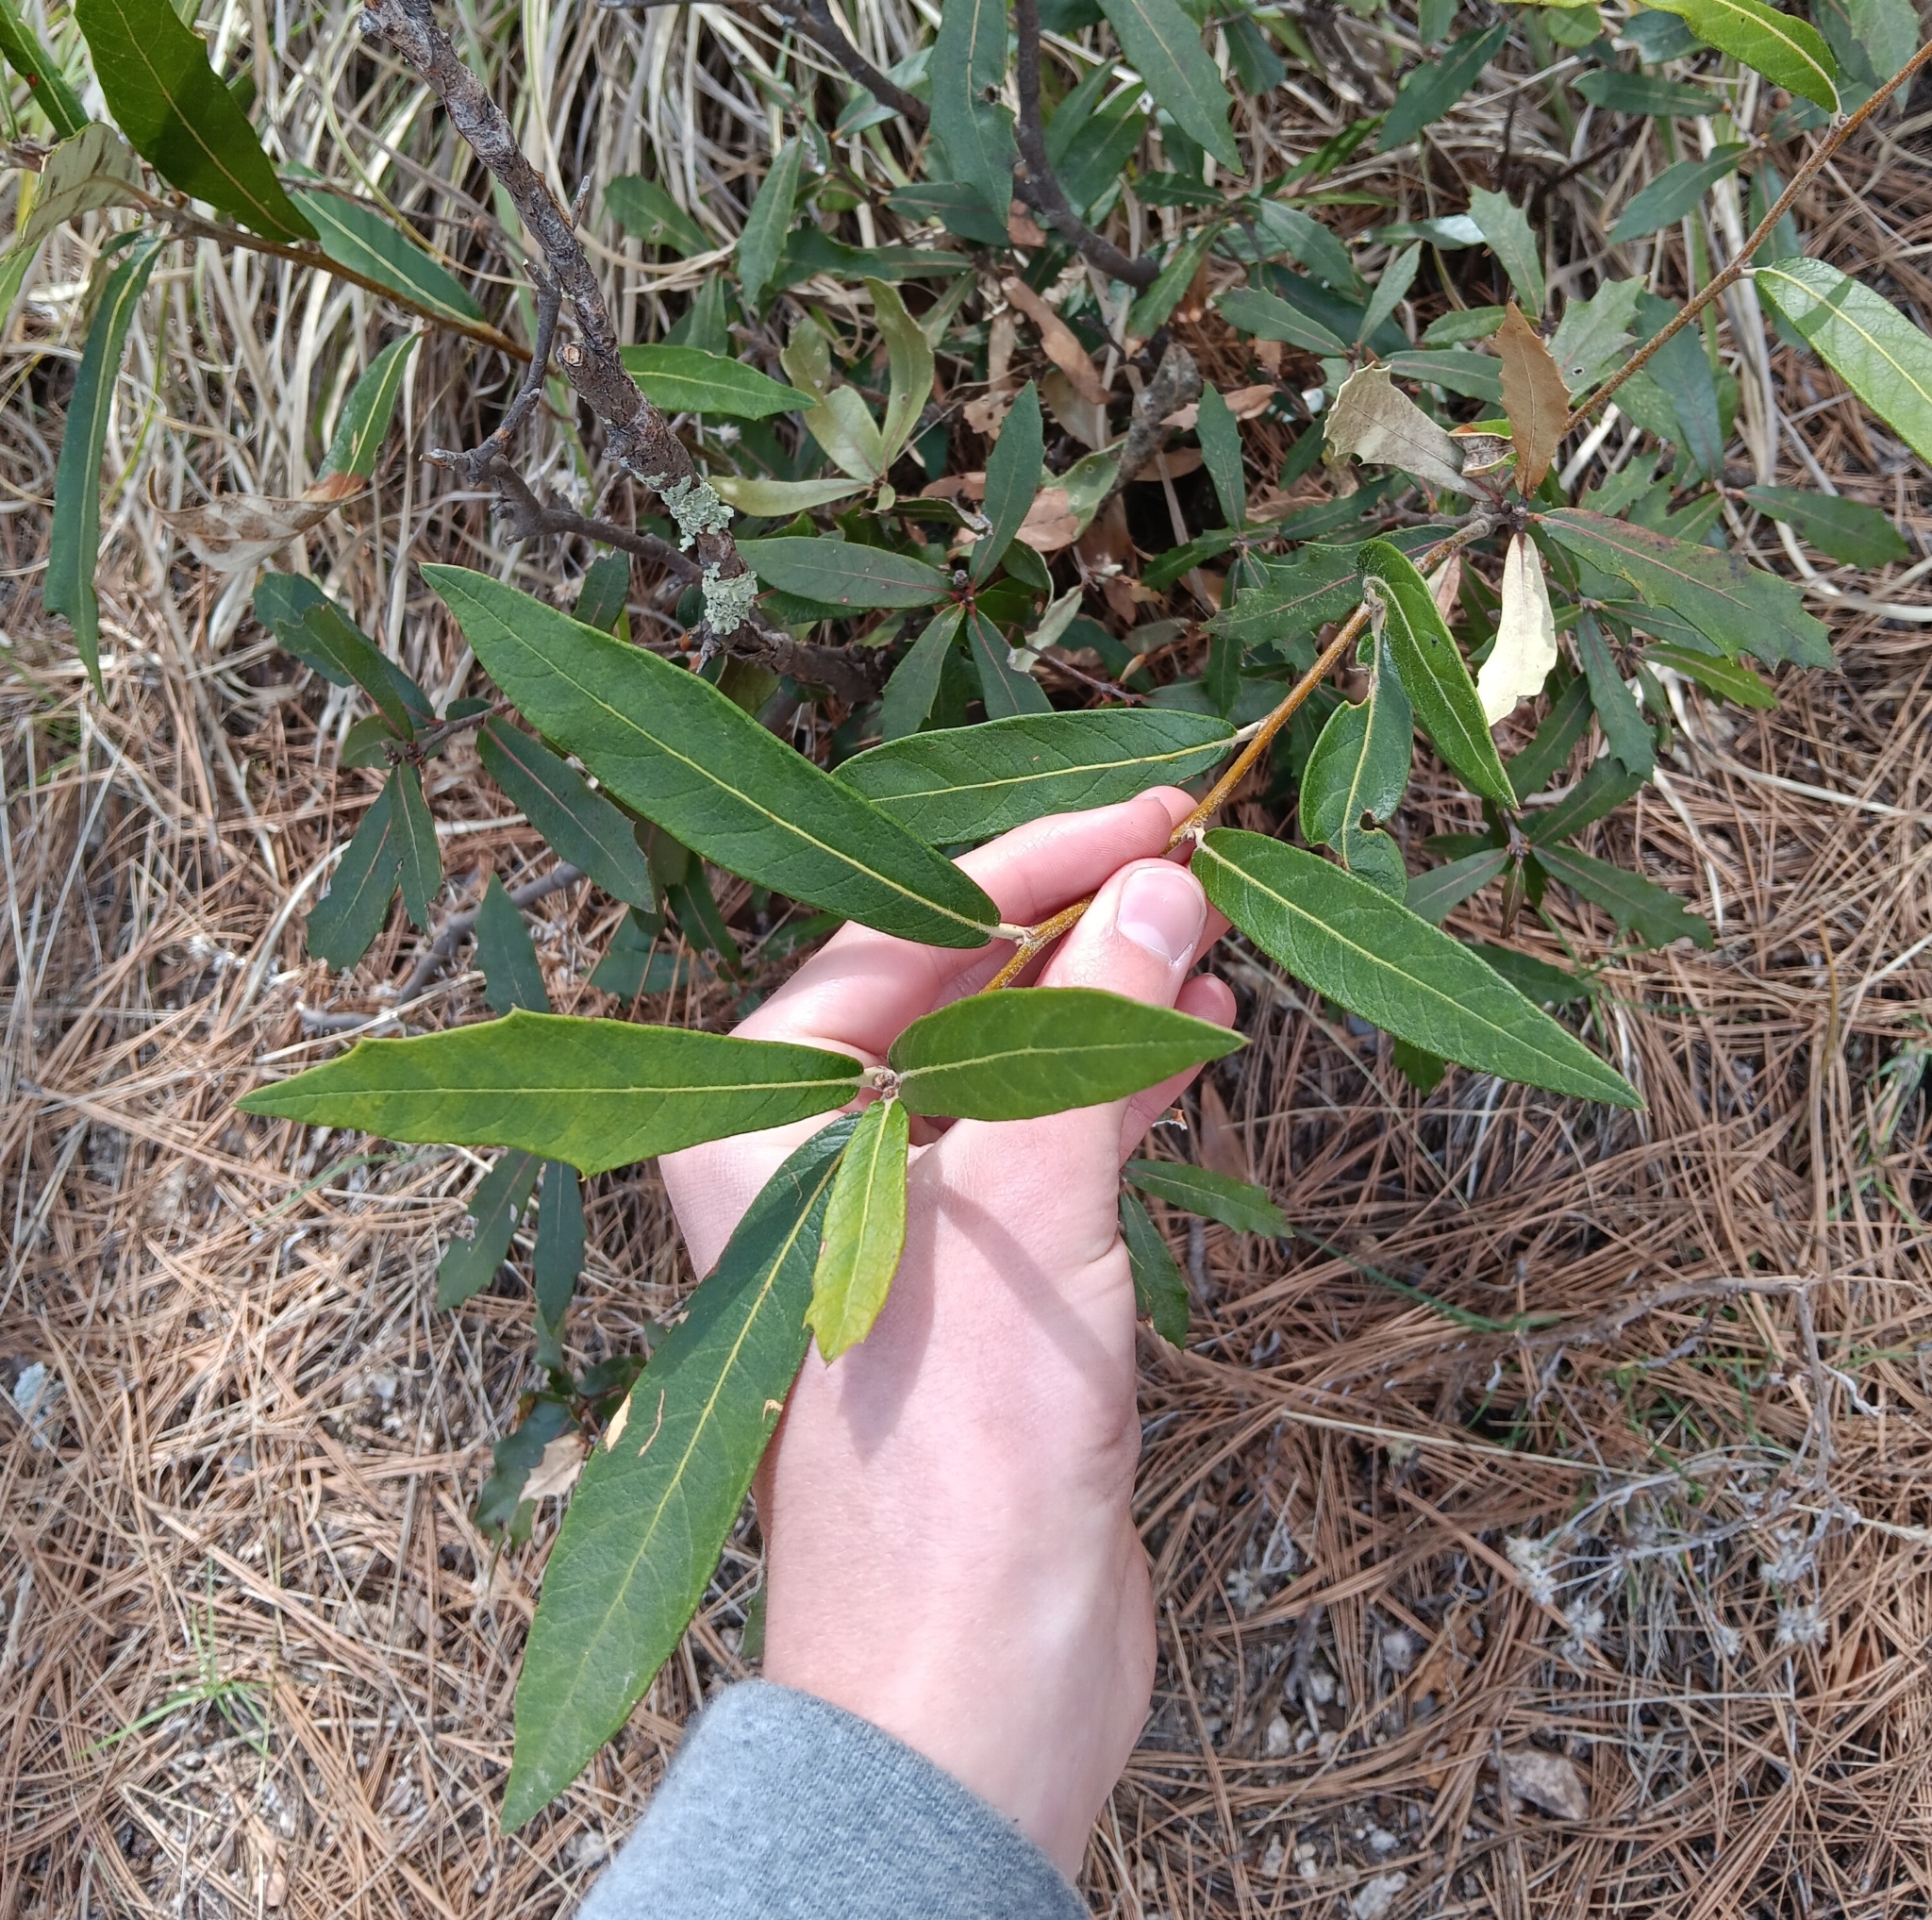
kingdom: Plantae
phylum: Tracheophyta
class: Magnoliopsida
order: Fagales
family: Fagaceae
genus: Quercus
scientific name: Quercus hypoleucoides
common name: Silverleaf oak
